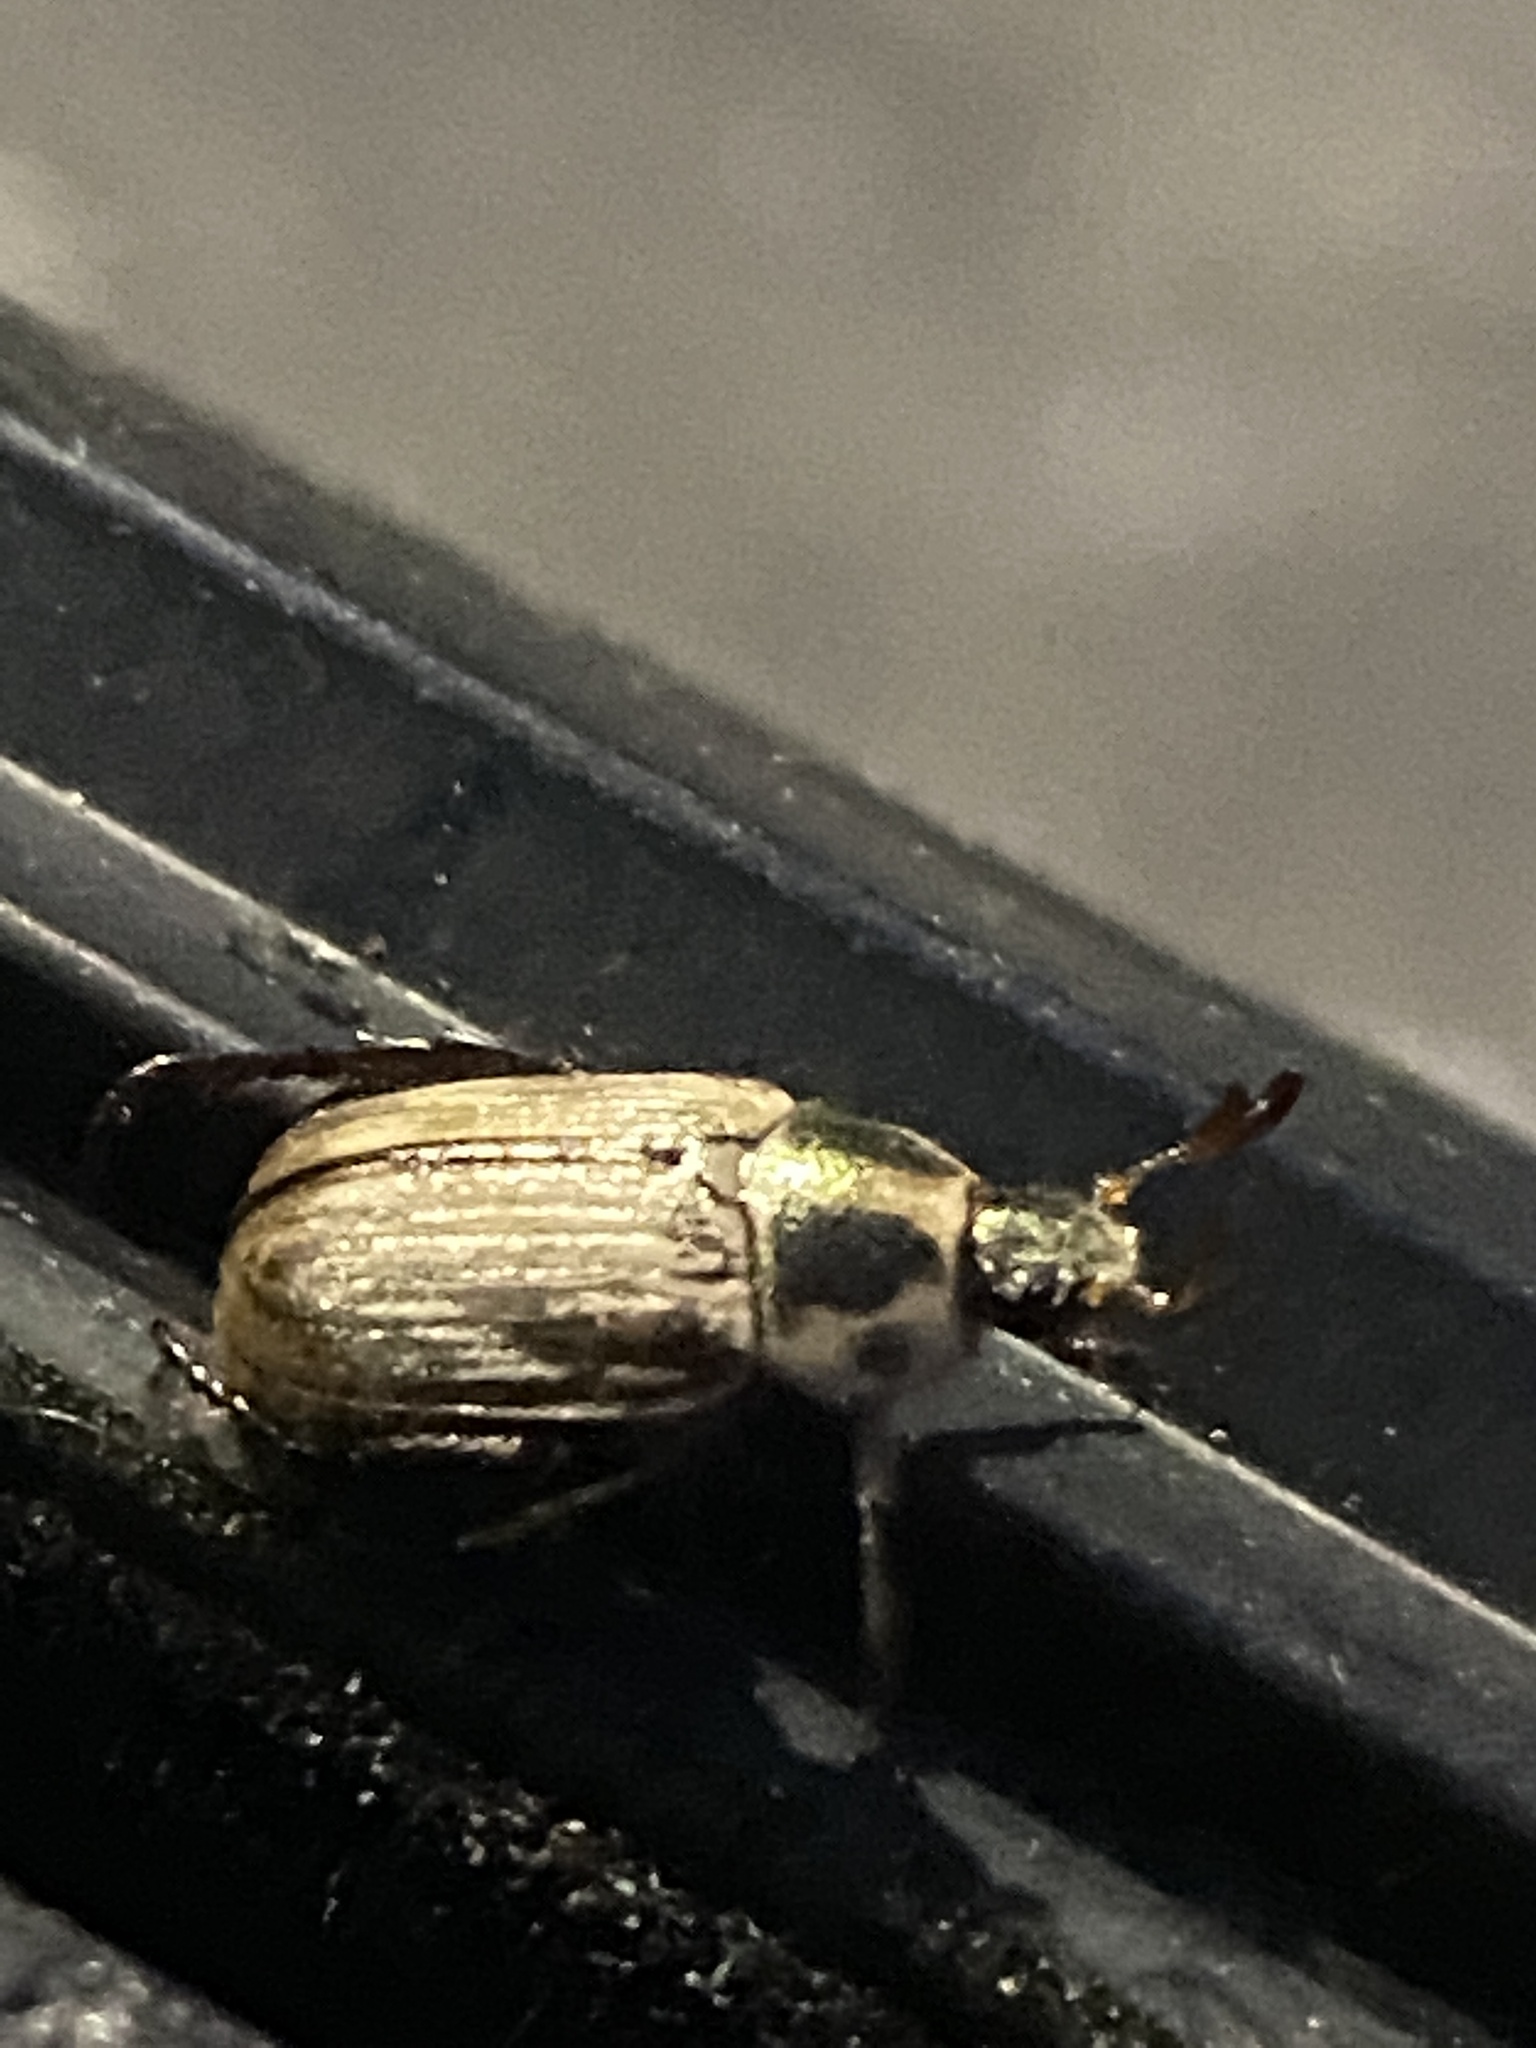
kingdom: Animalia
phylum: Arthropoda
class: Insecta
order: Coleoptera
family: Scarabaeidae
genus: Exomala
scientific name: Exomala orientalis
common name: Oriental beetle
